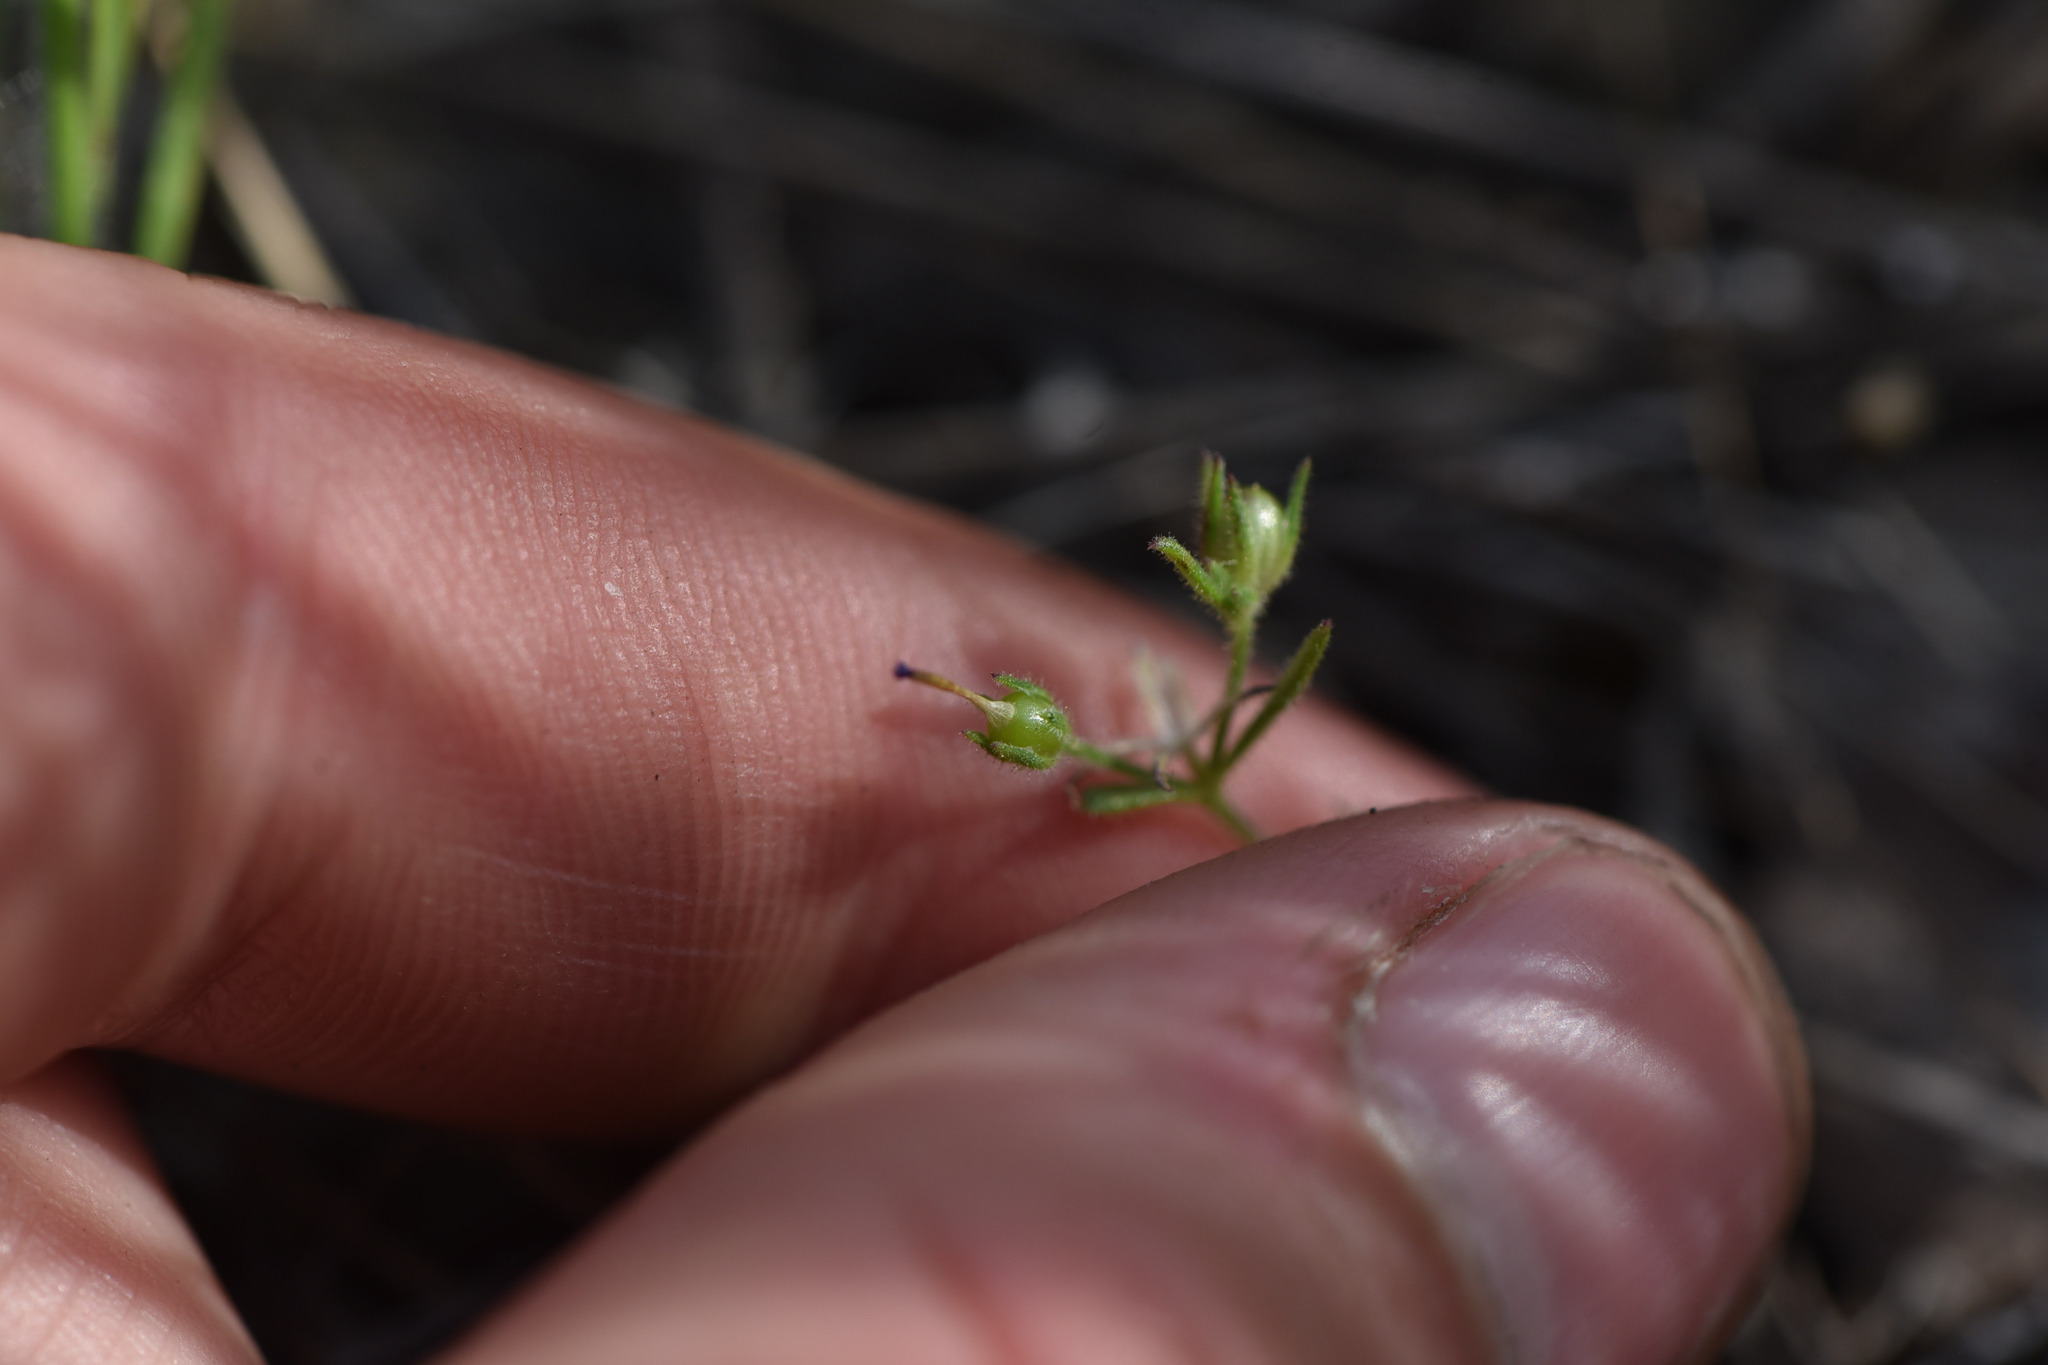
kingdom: Plantae
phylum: Tracheophyta
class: Magnoliopsida
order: Ericales
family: Polemoniaceae
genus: Phlox
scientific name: Phlox gracilis
